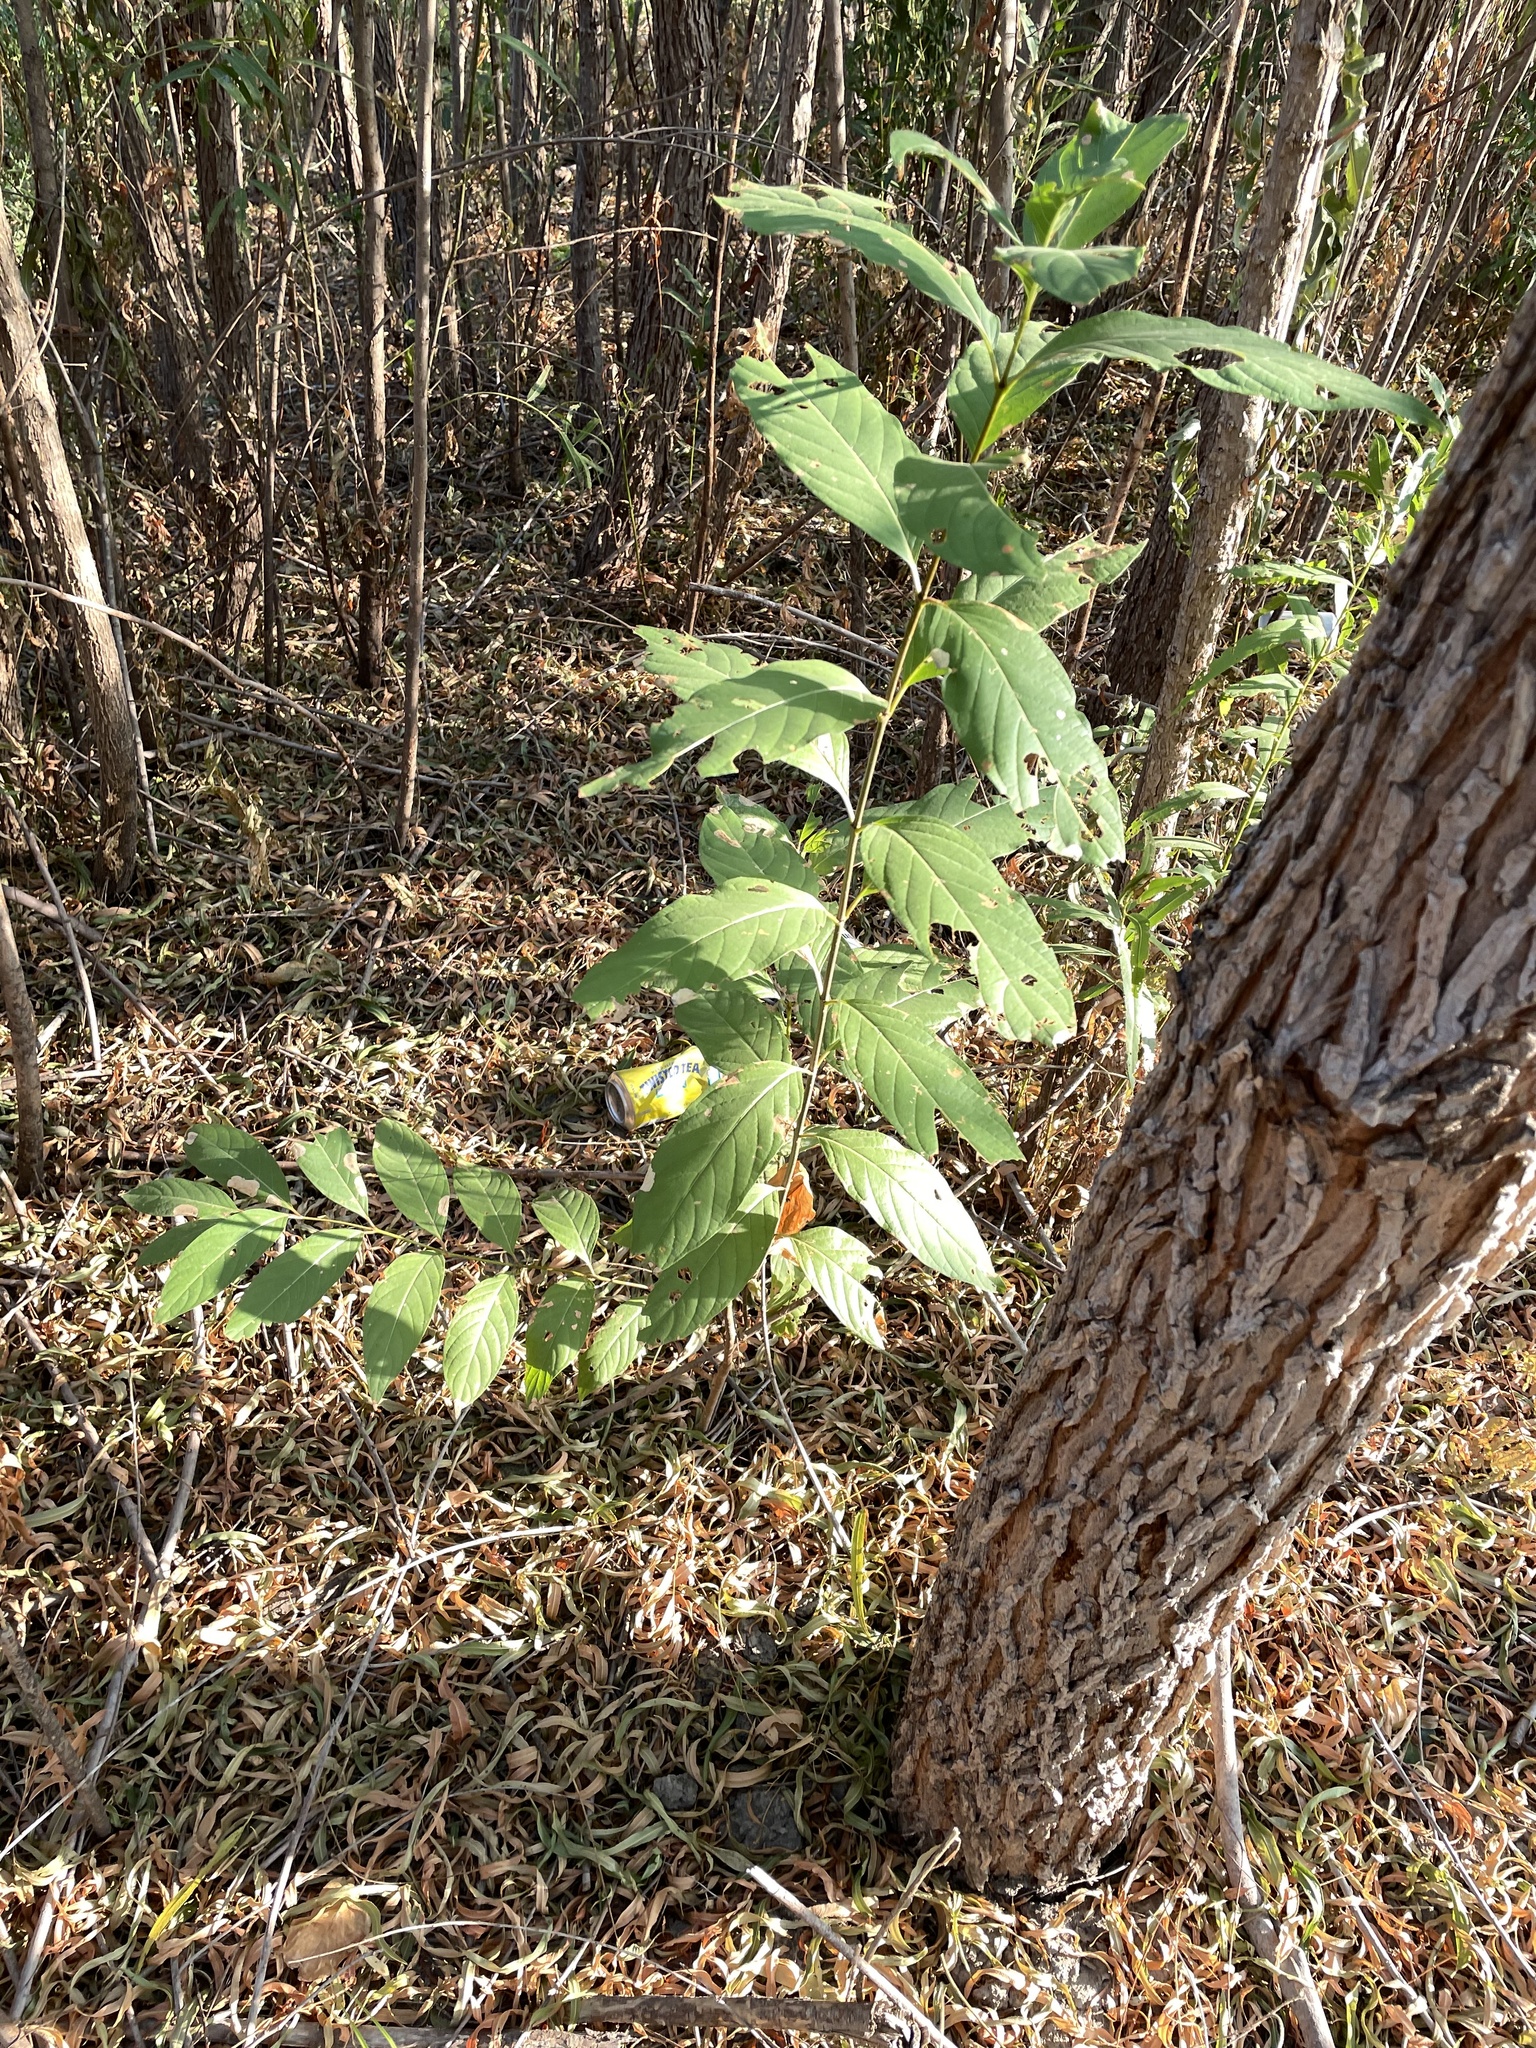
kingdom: Plantae
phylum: Tracheophyta
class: Magnoliopsida
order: Gentianales
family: Rubiaceae
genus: Cephalanthus
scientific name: Cephalanthus occidentalis
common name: Button-willow
